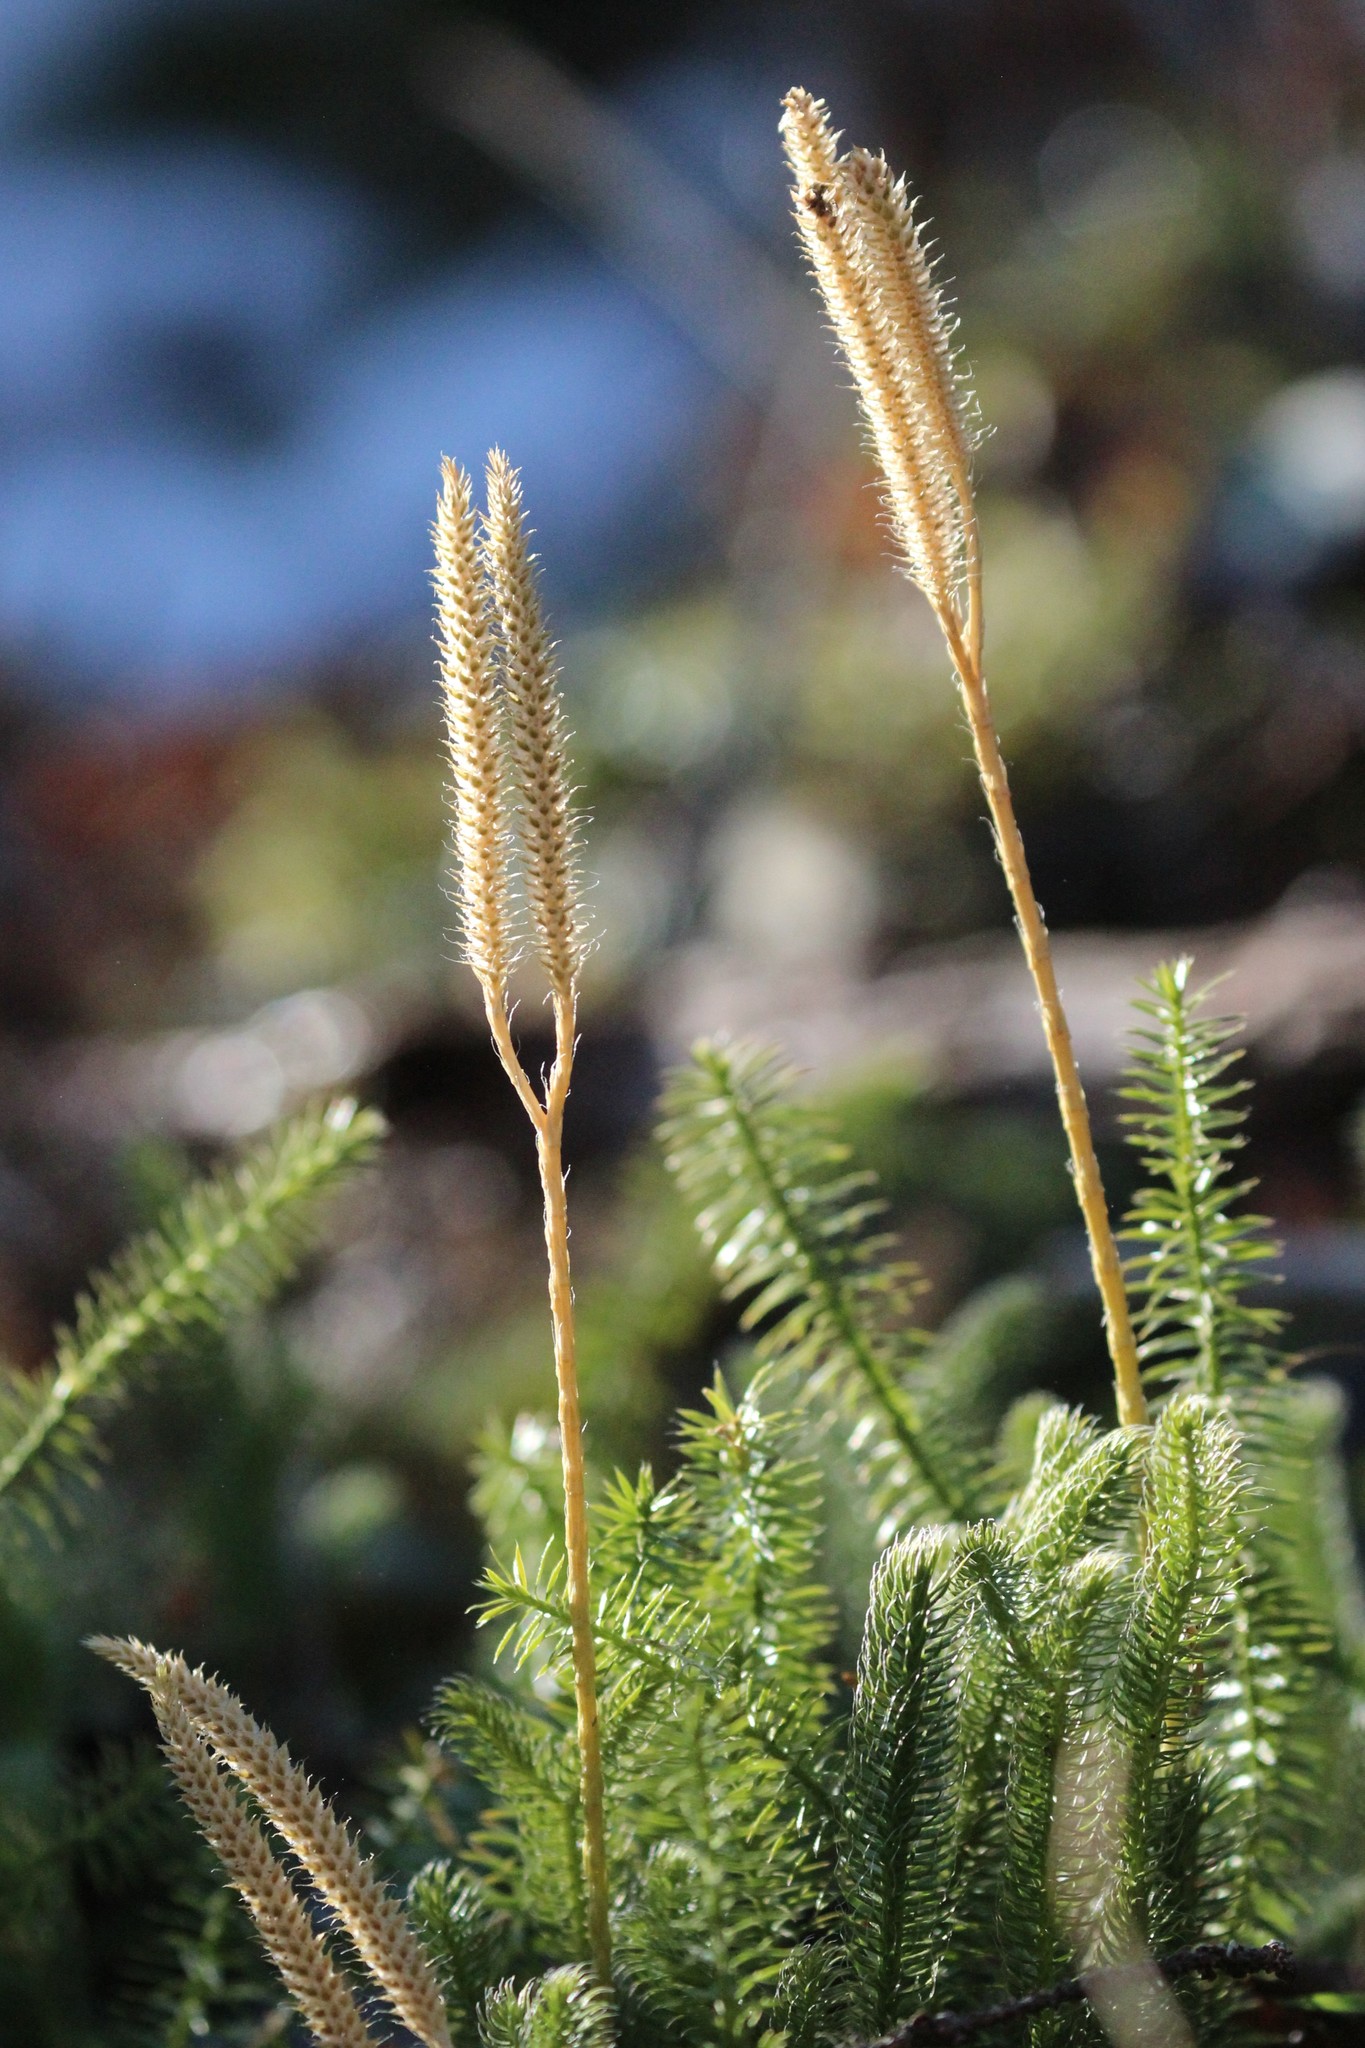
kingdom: Plantae
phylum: Tracheophyta
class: Lycopodiopsida
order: Lycopodiales
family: Lycopodiaceae
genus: Lycopodium
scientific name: Lycopodium clavatum
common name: Stag's-horn clubmoss
